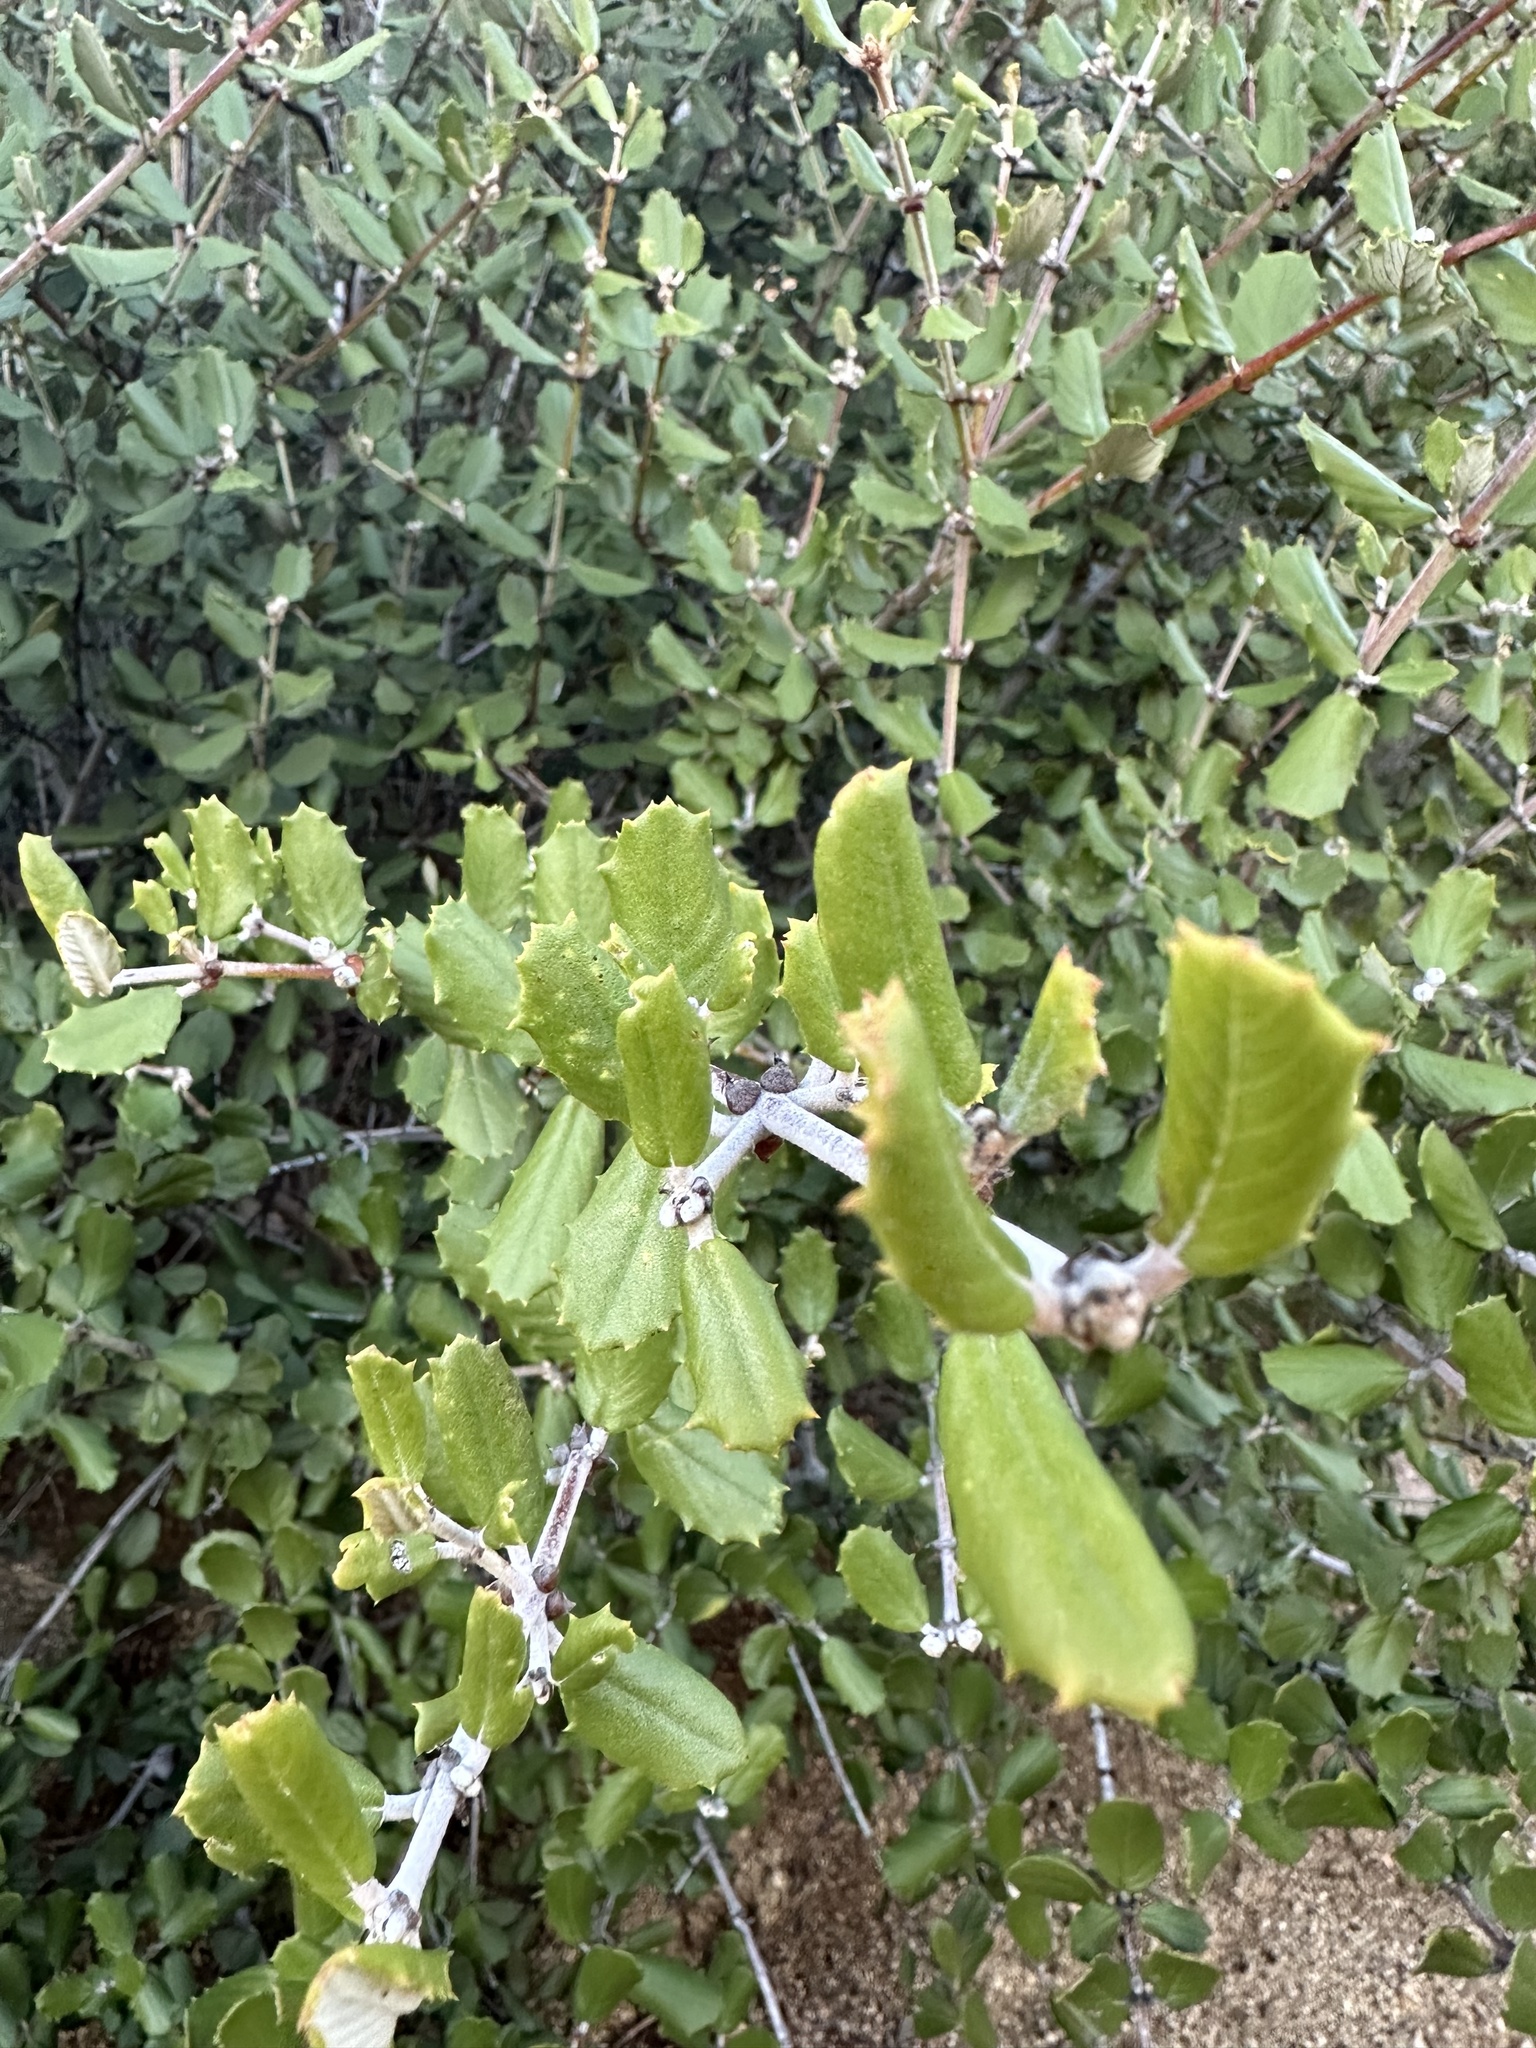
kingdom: Plantae
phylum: Tracheophyta
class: Magnoliopsida
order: Rosales
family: Rhamnaceae
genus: Ceanothus
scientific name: Ceanothus crassifolius
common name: Hoaryleaf ceanothus
